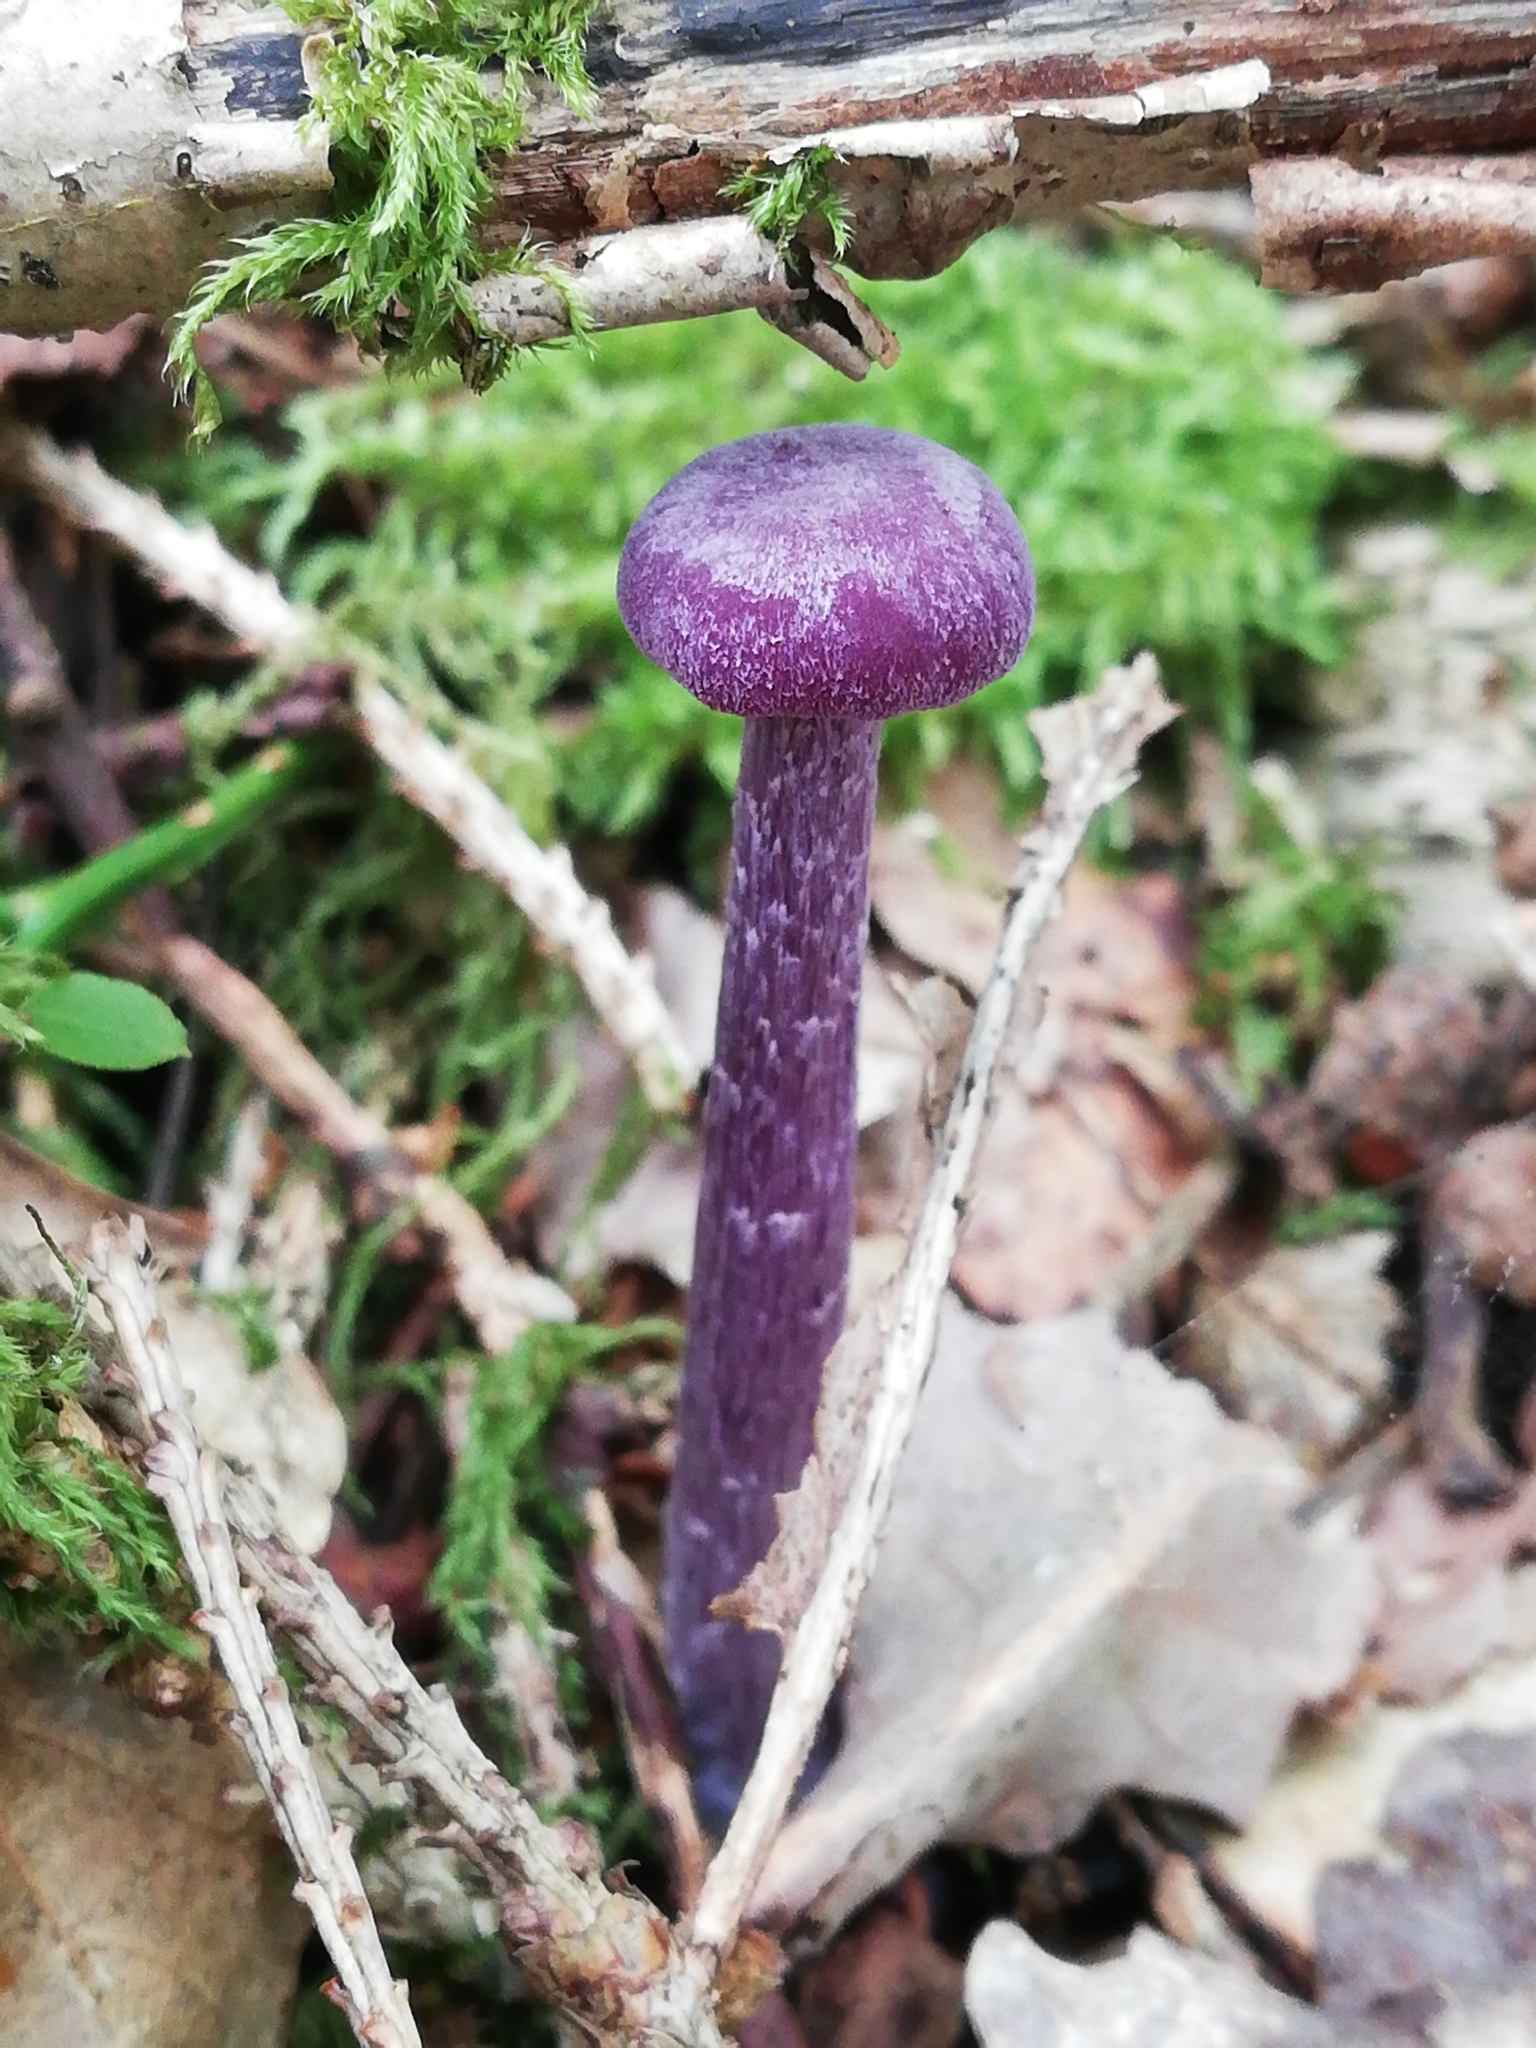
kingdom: Fungi
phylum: Basidiomycota
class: Agaricomycetes
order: Agaricales
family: Hydnangiaceae
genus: Laccaria
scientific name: Laccaria amethystina
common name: Amethyst deceiver
